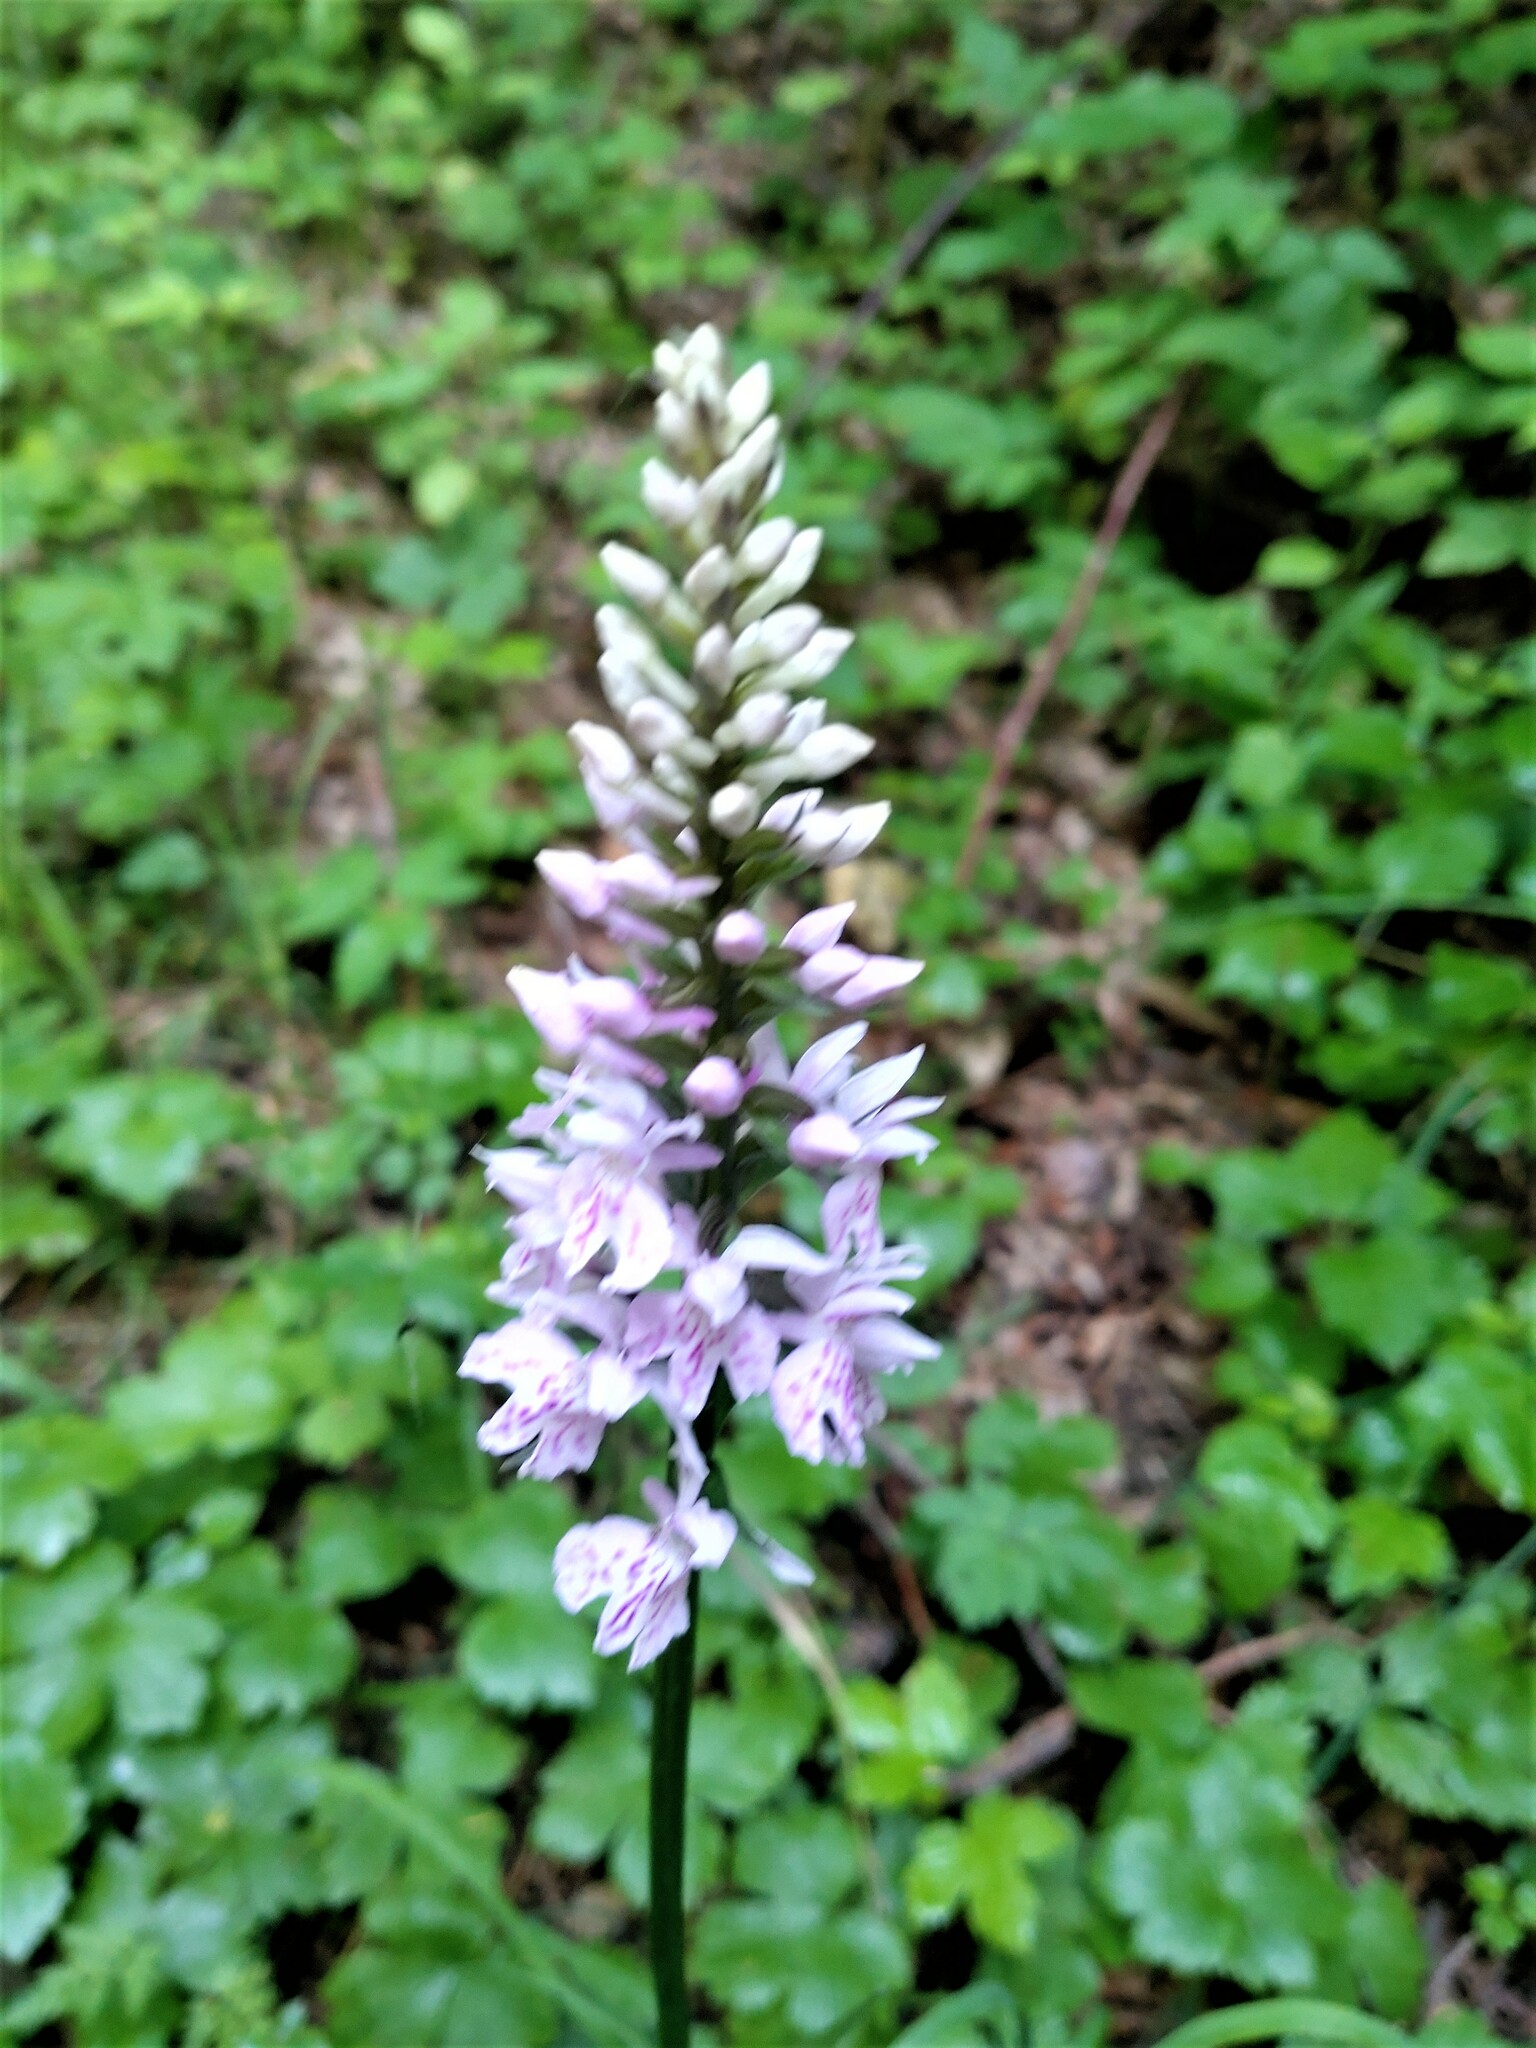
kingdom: Plantae
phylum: Tracheophyta
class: Liliopsida
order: Asparagales
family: Orchidaceae
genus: Dactylorhiza
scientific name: Dactylorhiza maculata
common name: Heath spotted-orchid
